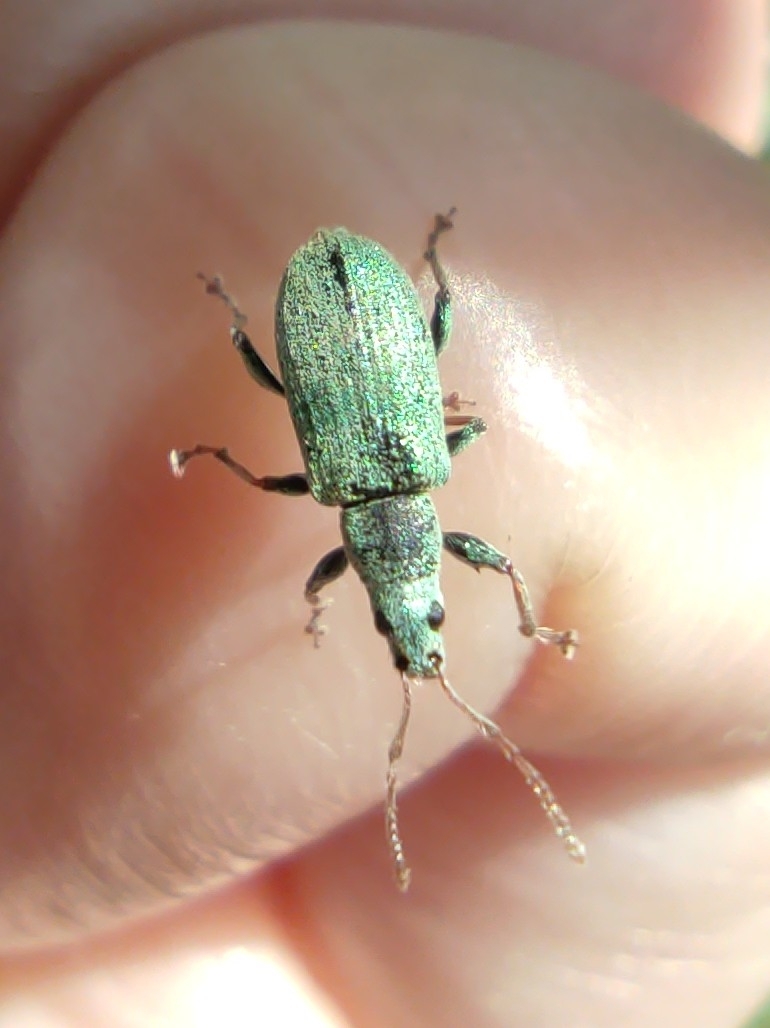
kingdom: Animalia
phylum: Arthropoda
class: Insecta
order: Coleoptera
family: Curculionidae
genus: Phyllobius
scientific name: Phyllobius argentatus
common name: Silver-green leaf weevil
